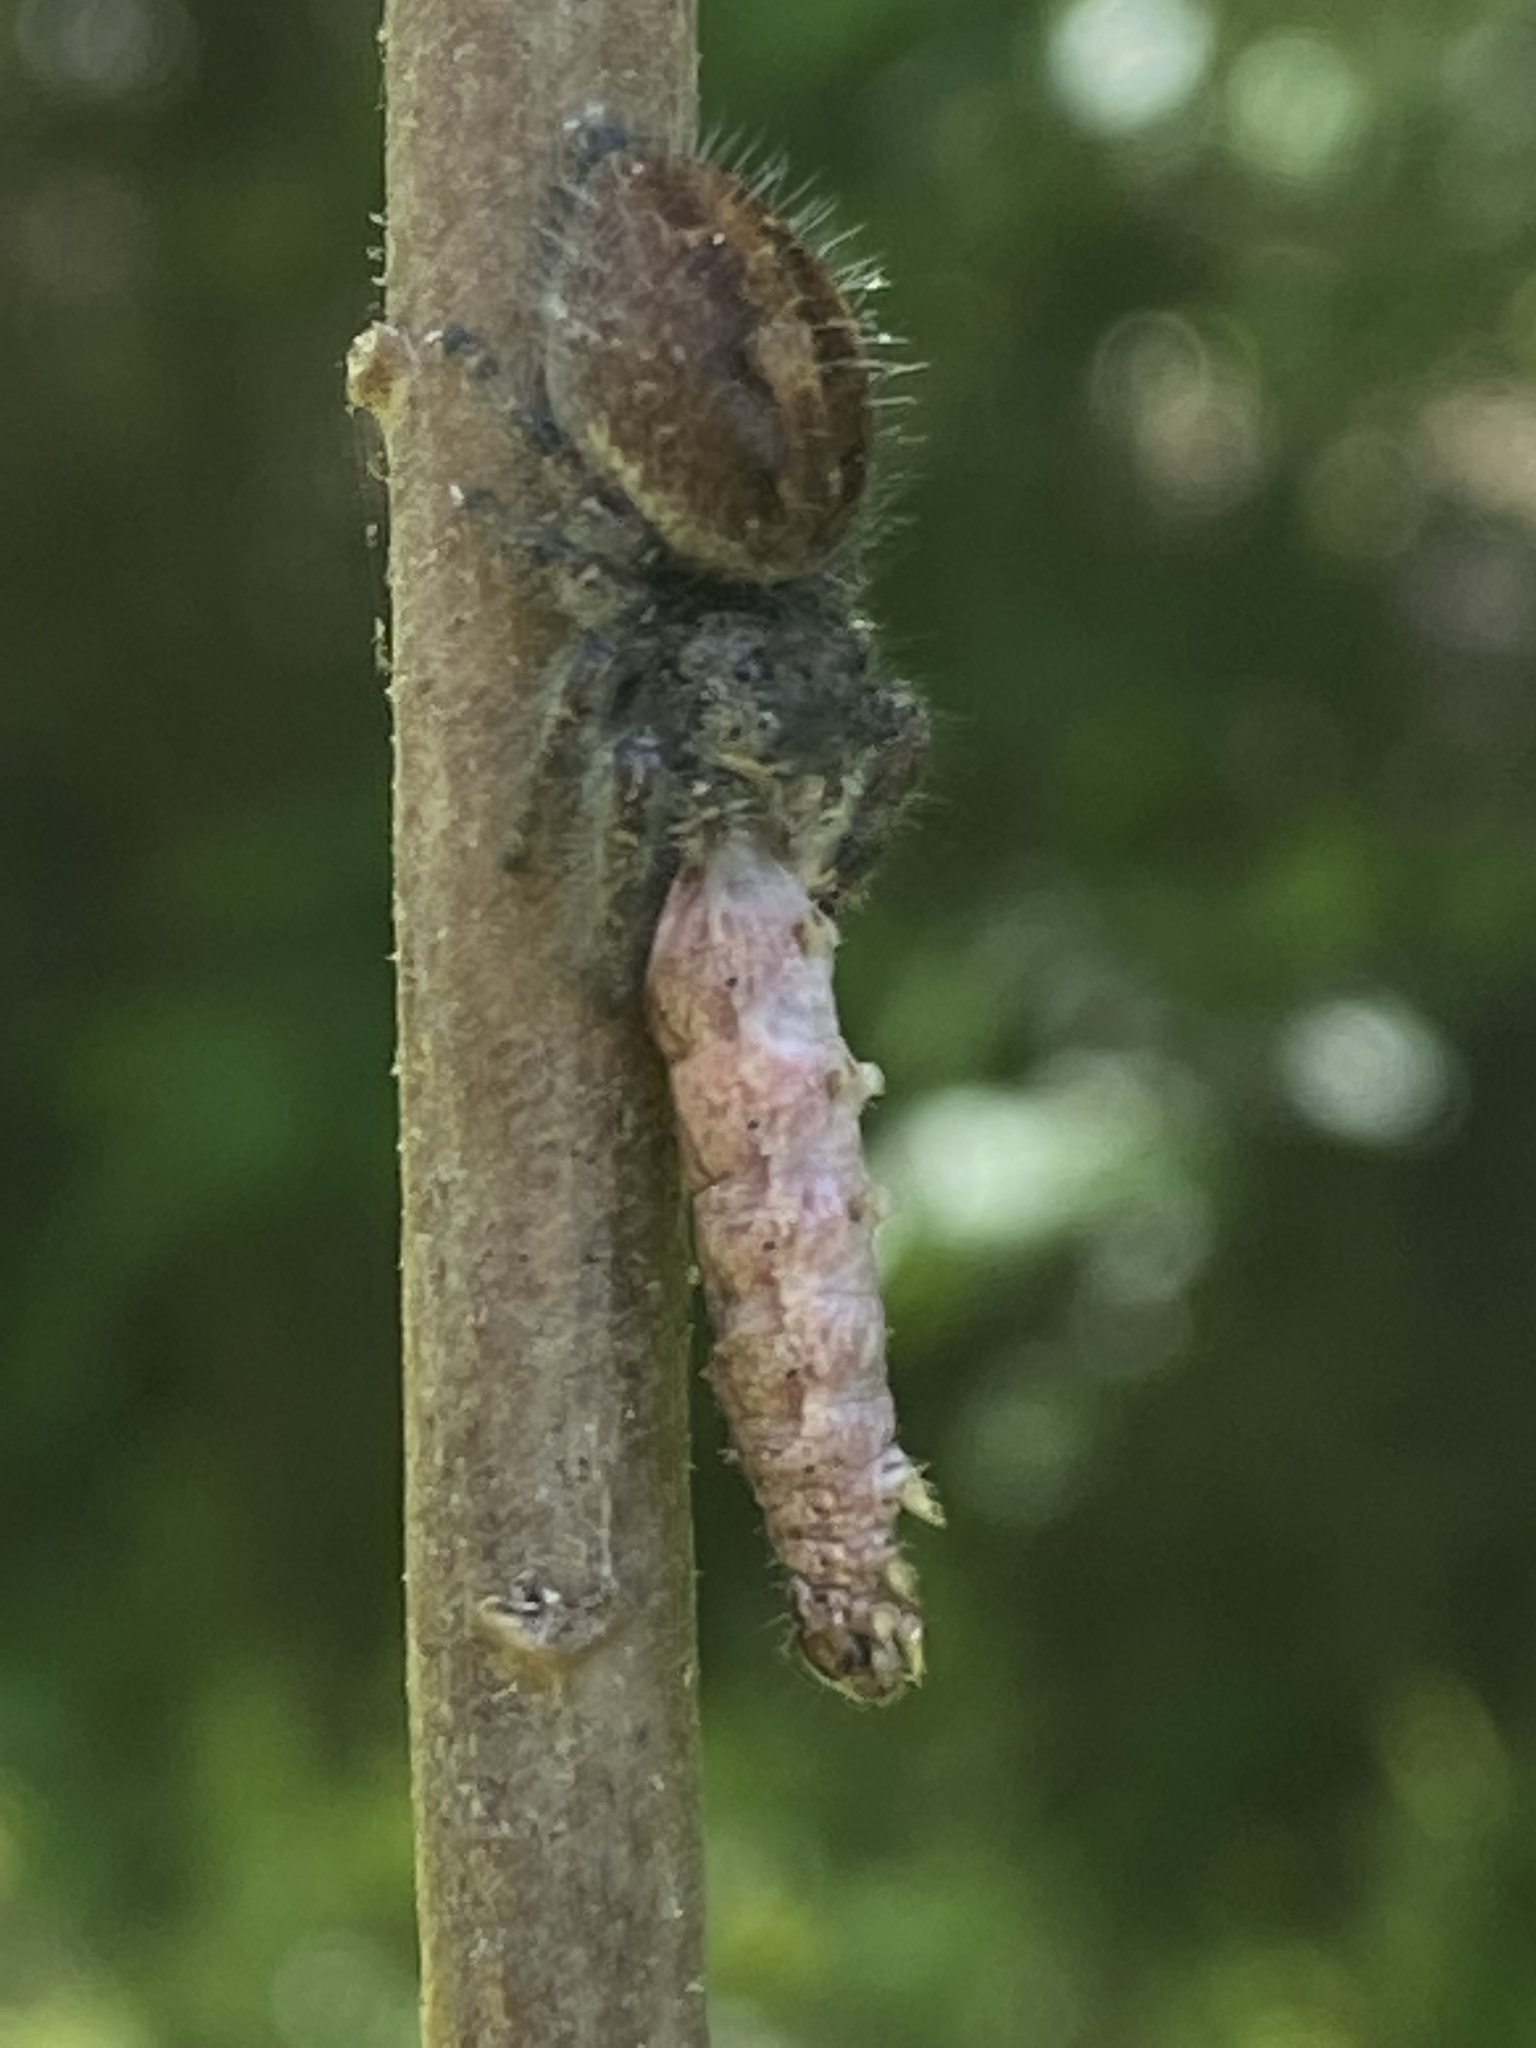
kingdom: Animalia
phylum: Arthropoda
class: Arachnida
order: Araneae
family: Salticidae
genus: Phidippus
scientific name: Phidippus princeps
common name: Grayish jumping spider
